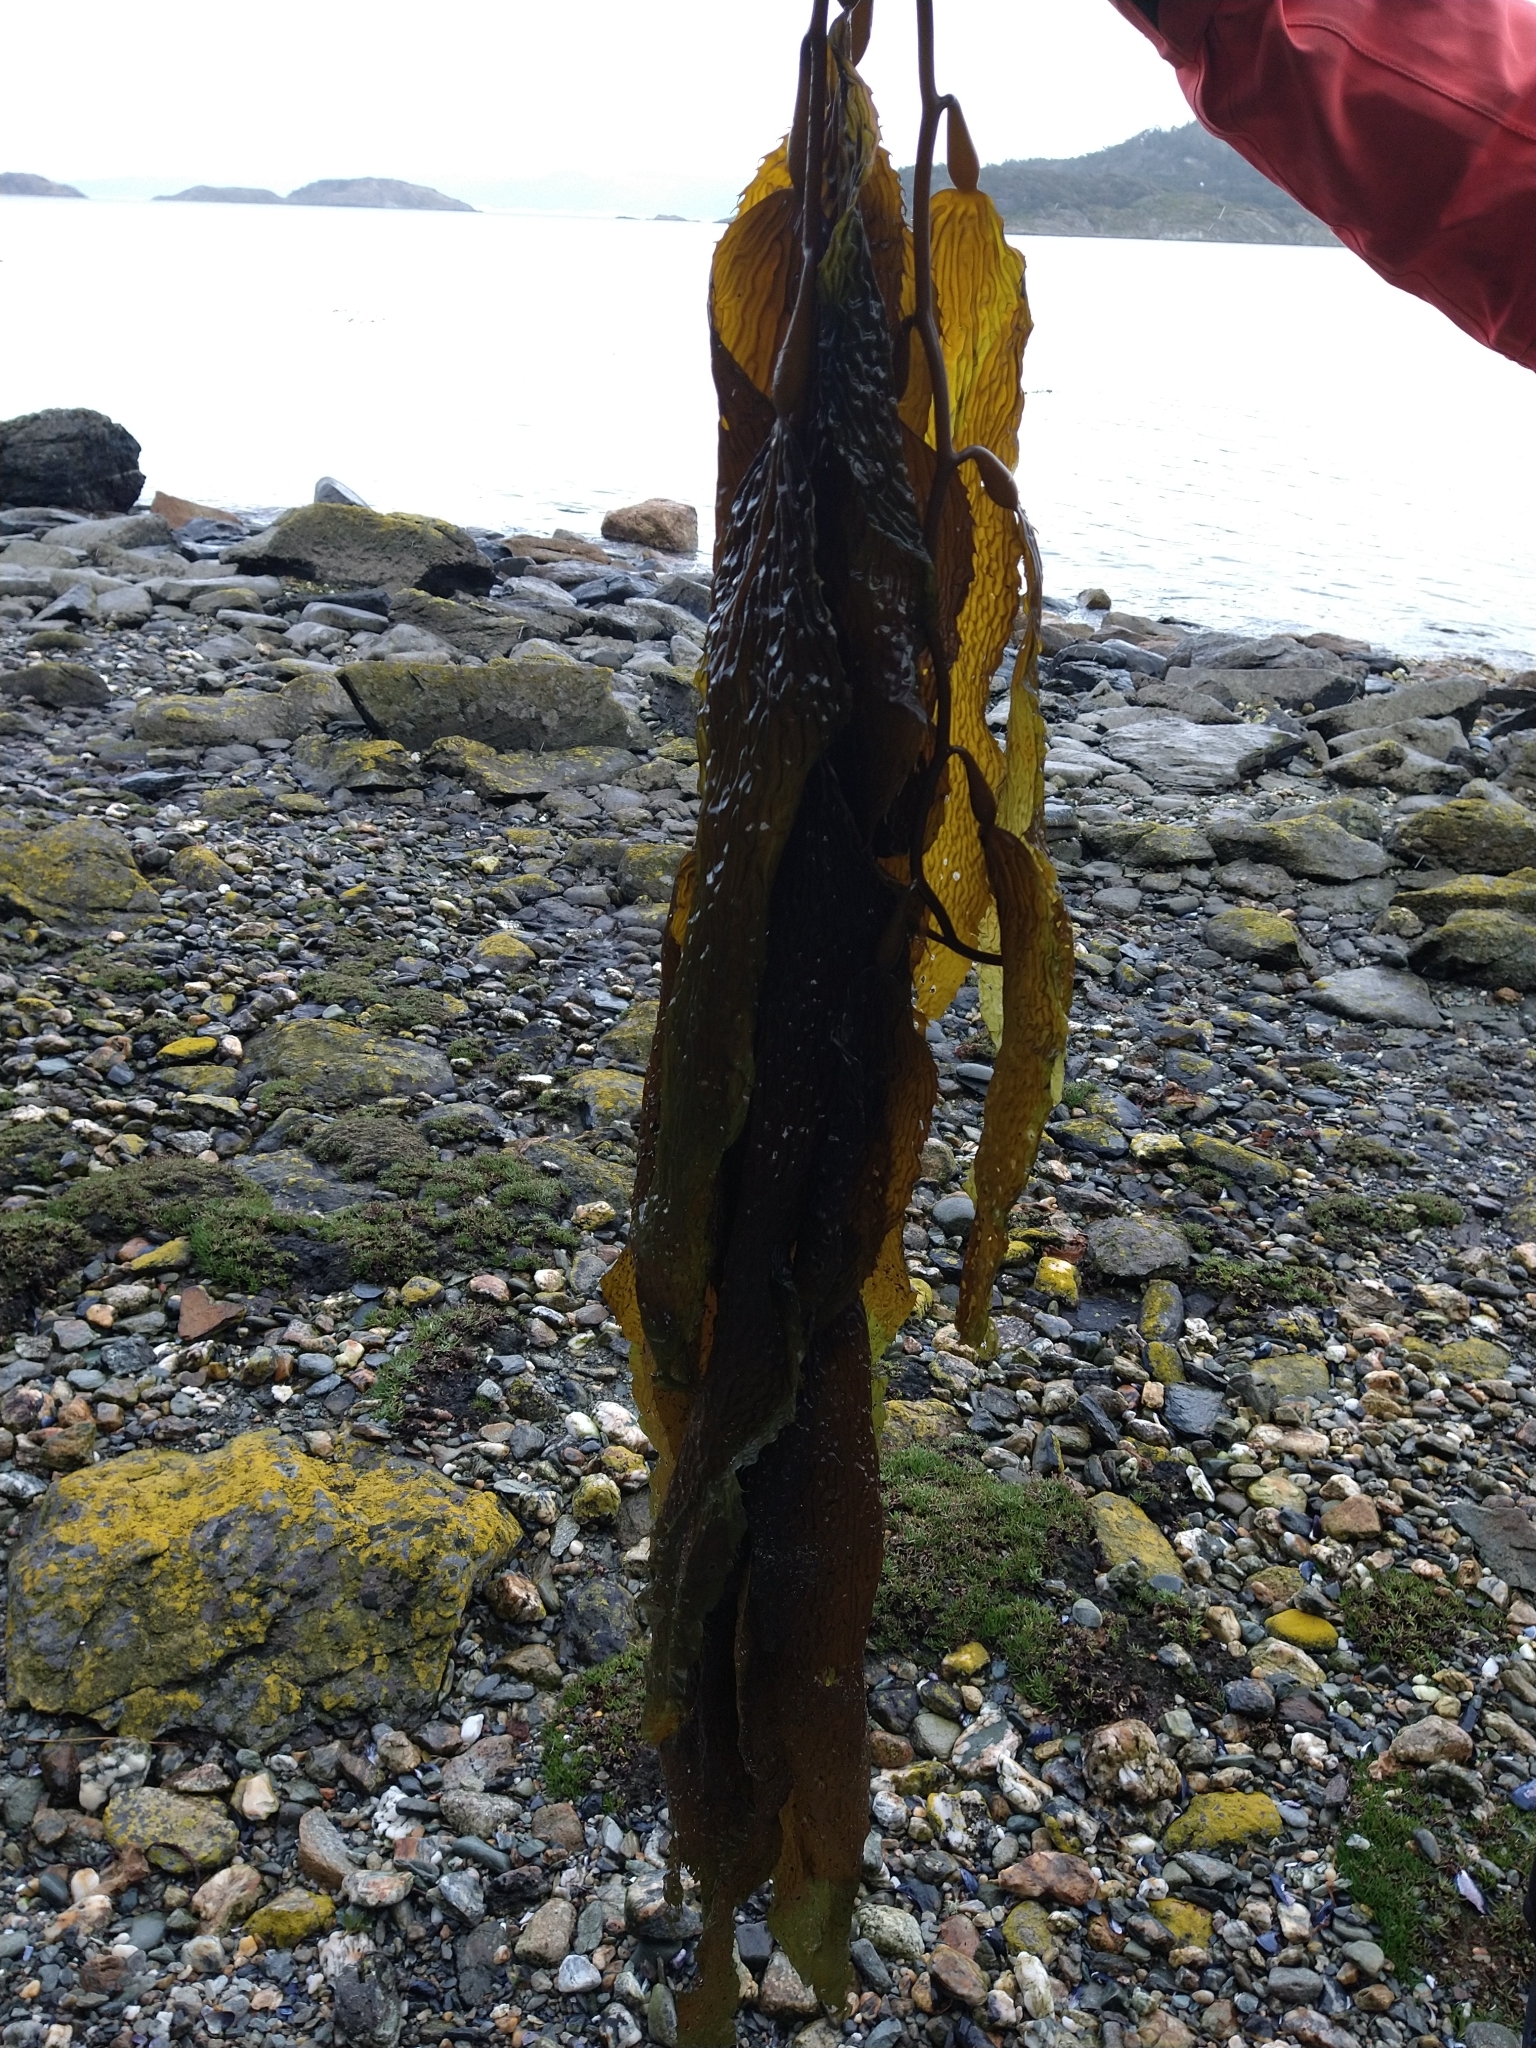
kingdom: Chromista
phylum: Ochrophyta
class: Phaeophyceae
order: Laminariales
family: Laminariaceae
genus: Macrocystis
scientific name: Macrocystis pyrifera
